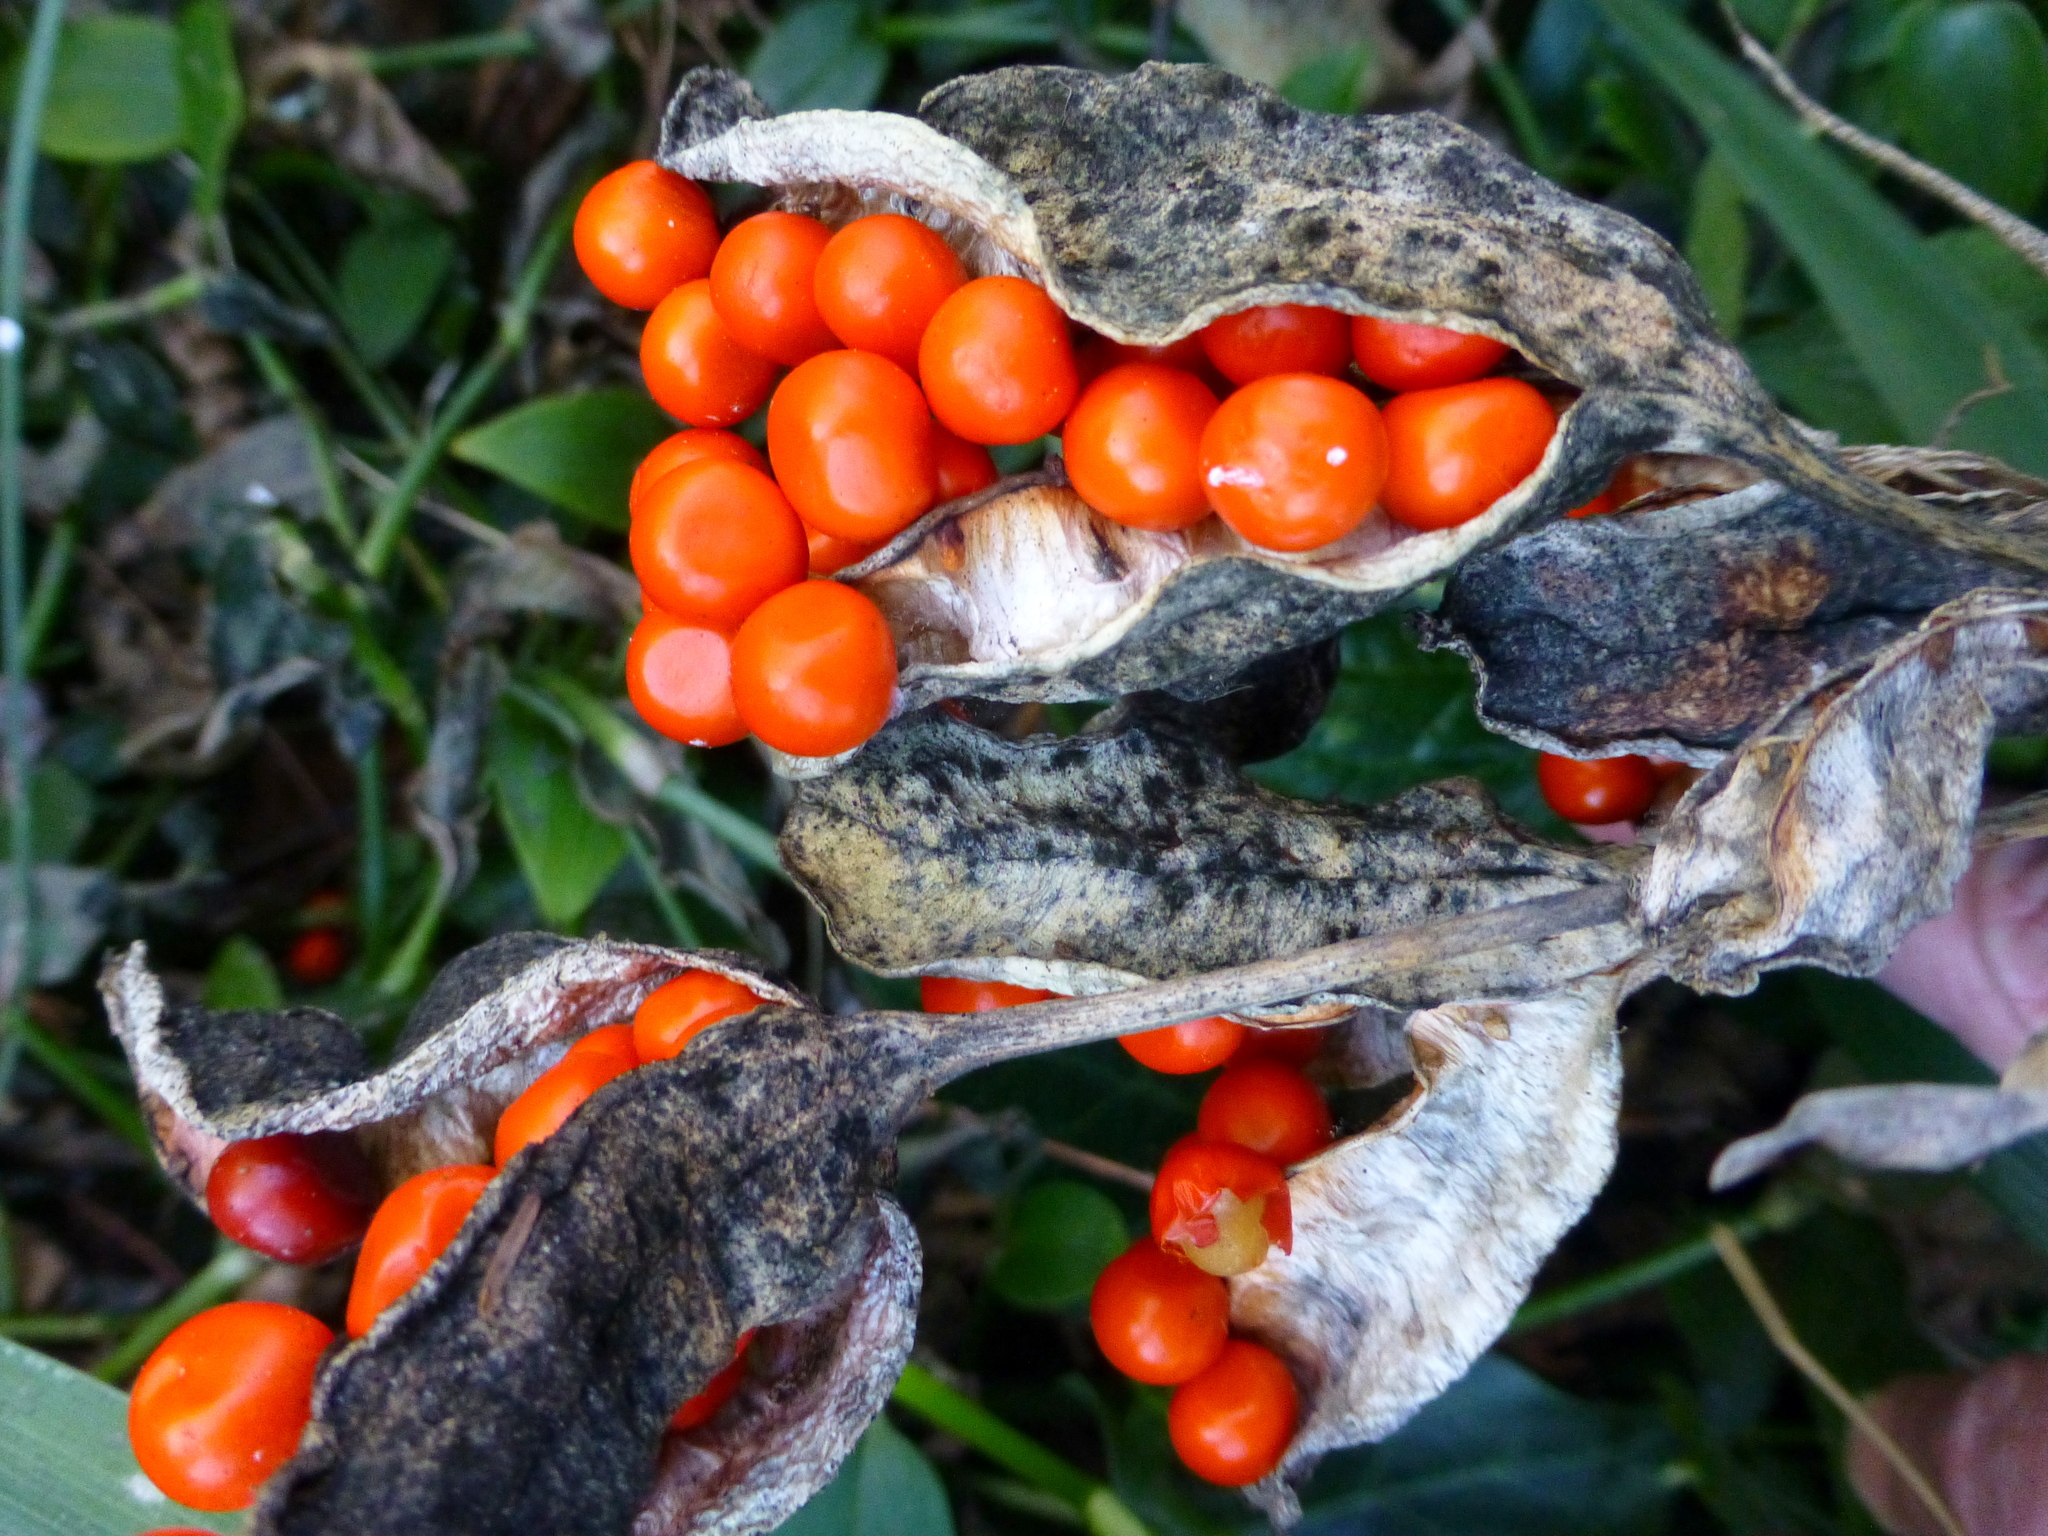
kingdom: Plantae
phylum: Tracheophyta
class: Liliopsida
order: Asparagales
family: Iridaceae
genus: Iris
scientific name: Iris foetidissima
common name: Stinking iris
